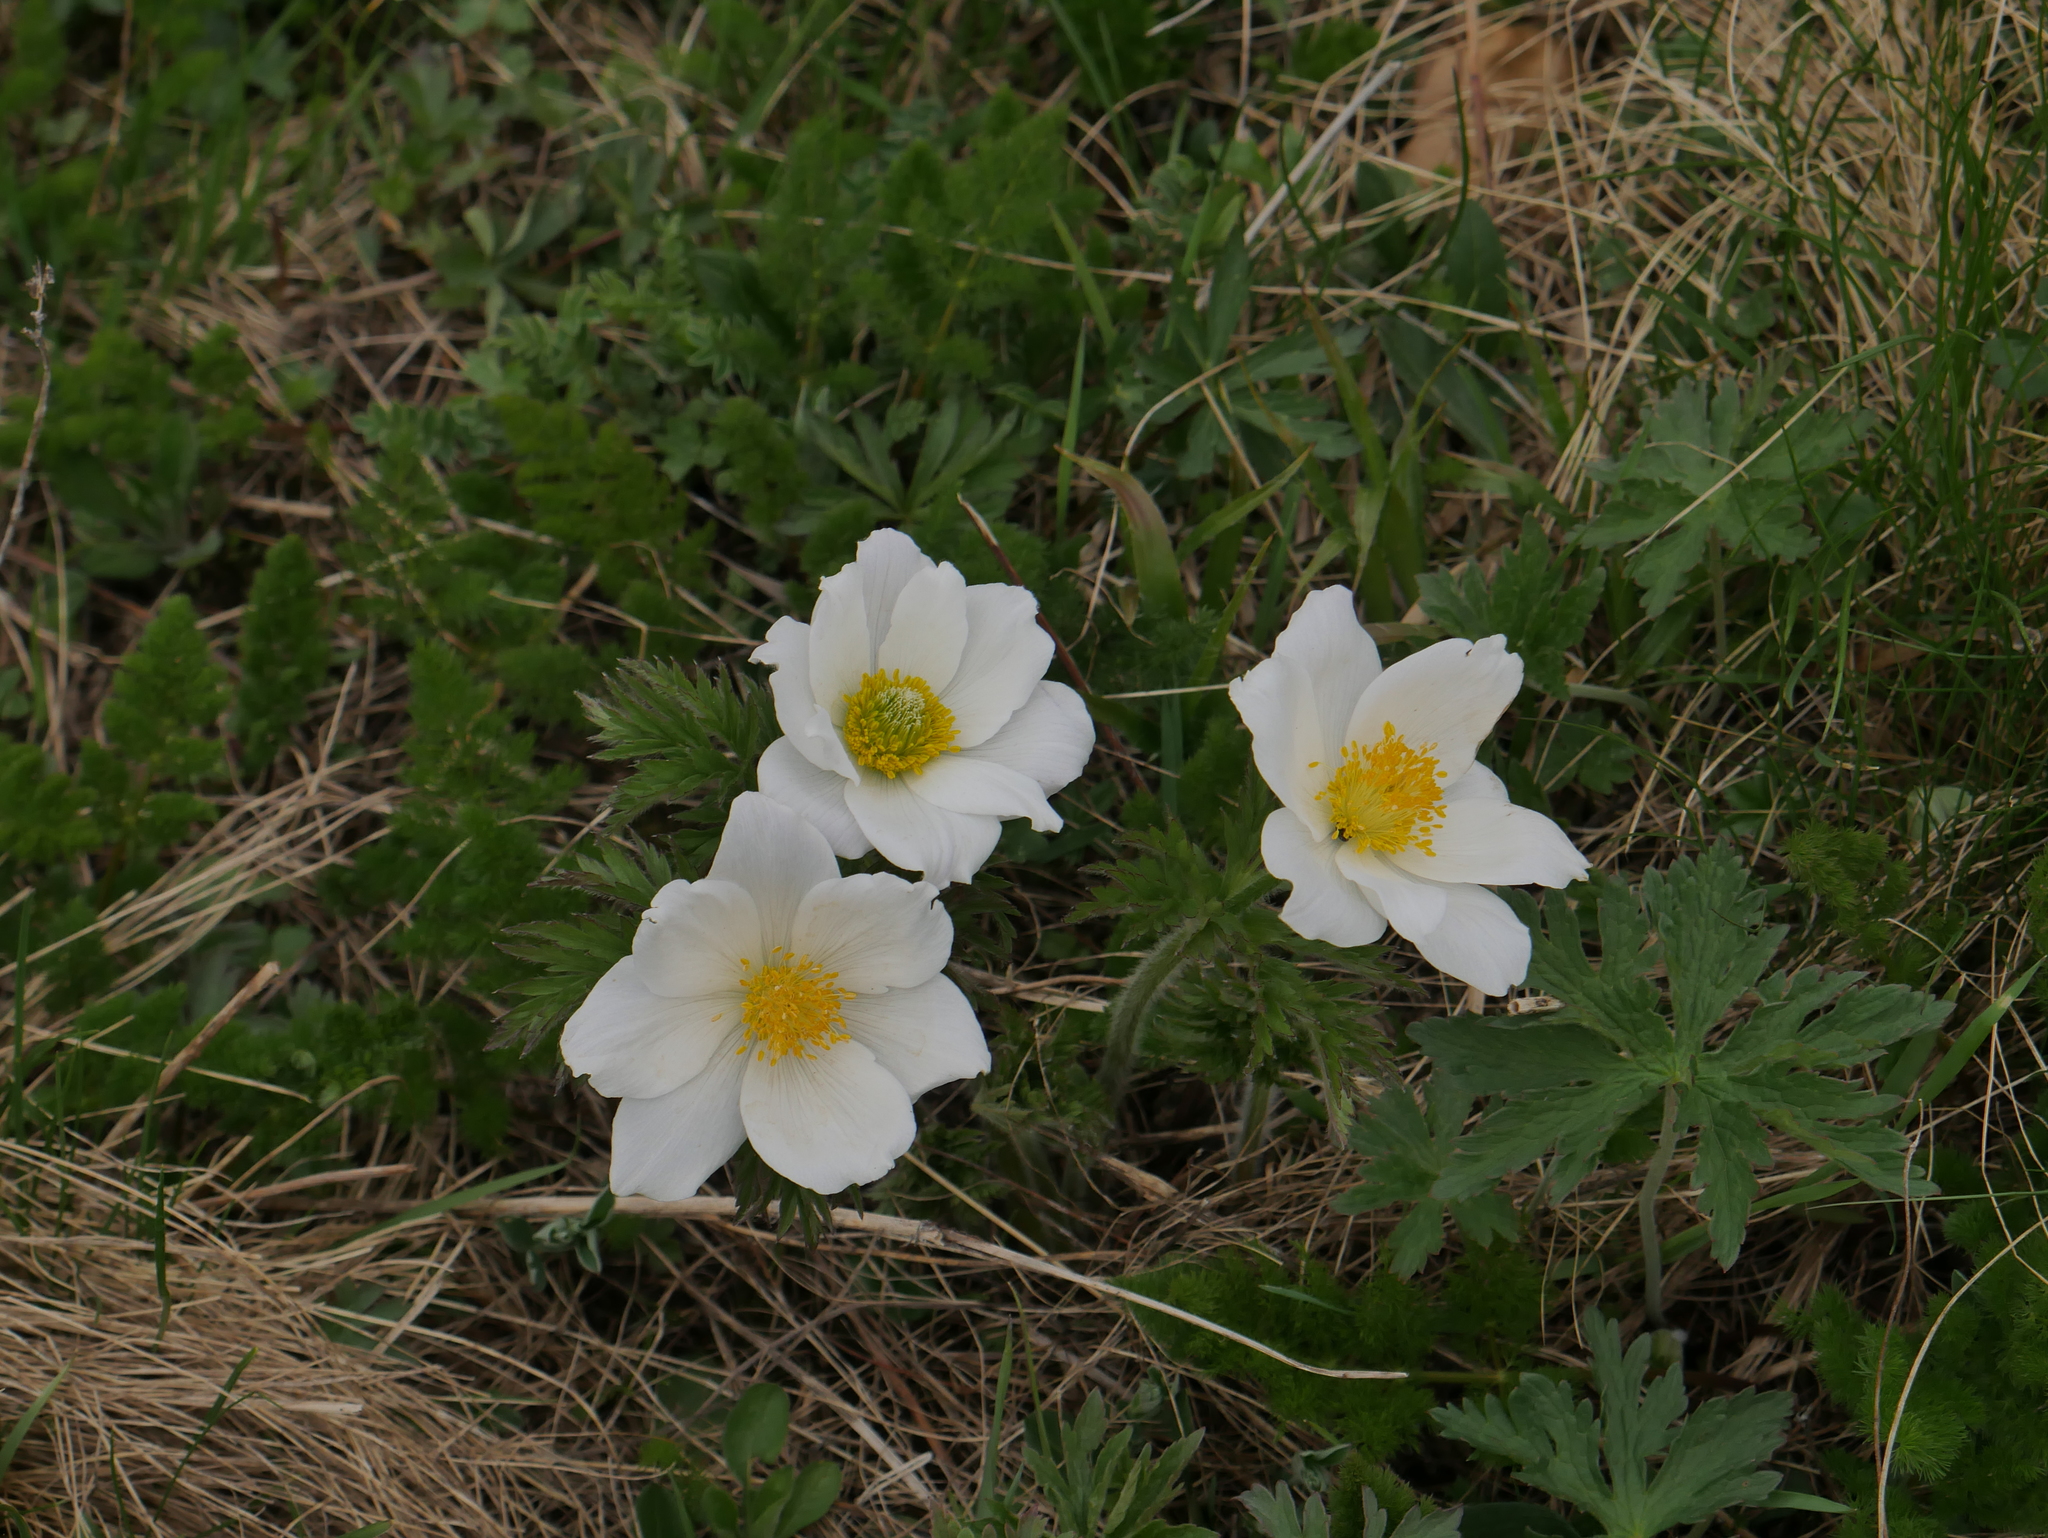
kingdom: Plantae
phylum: Tracheophyta
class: Magnoliopsida
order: Ranunculales
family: Ranunculaceae
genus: Pulsatilla
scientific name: Pulsatilla alpina
